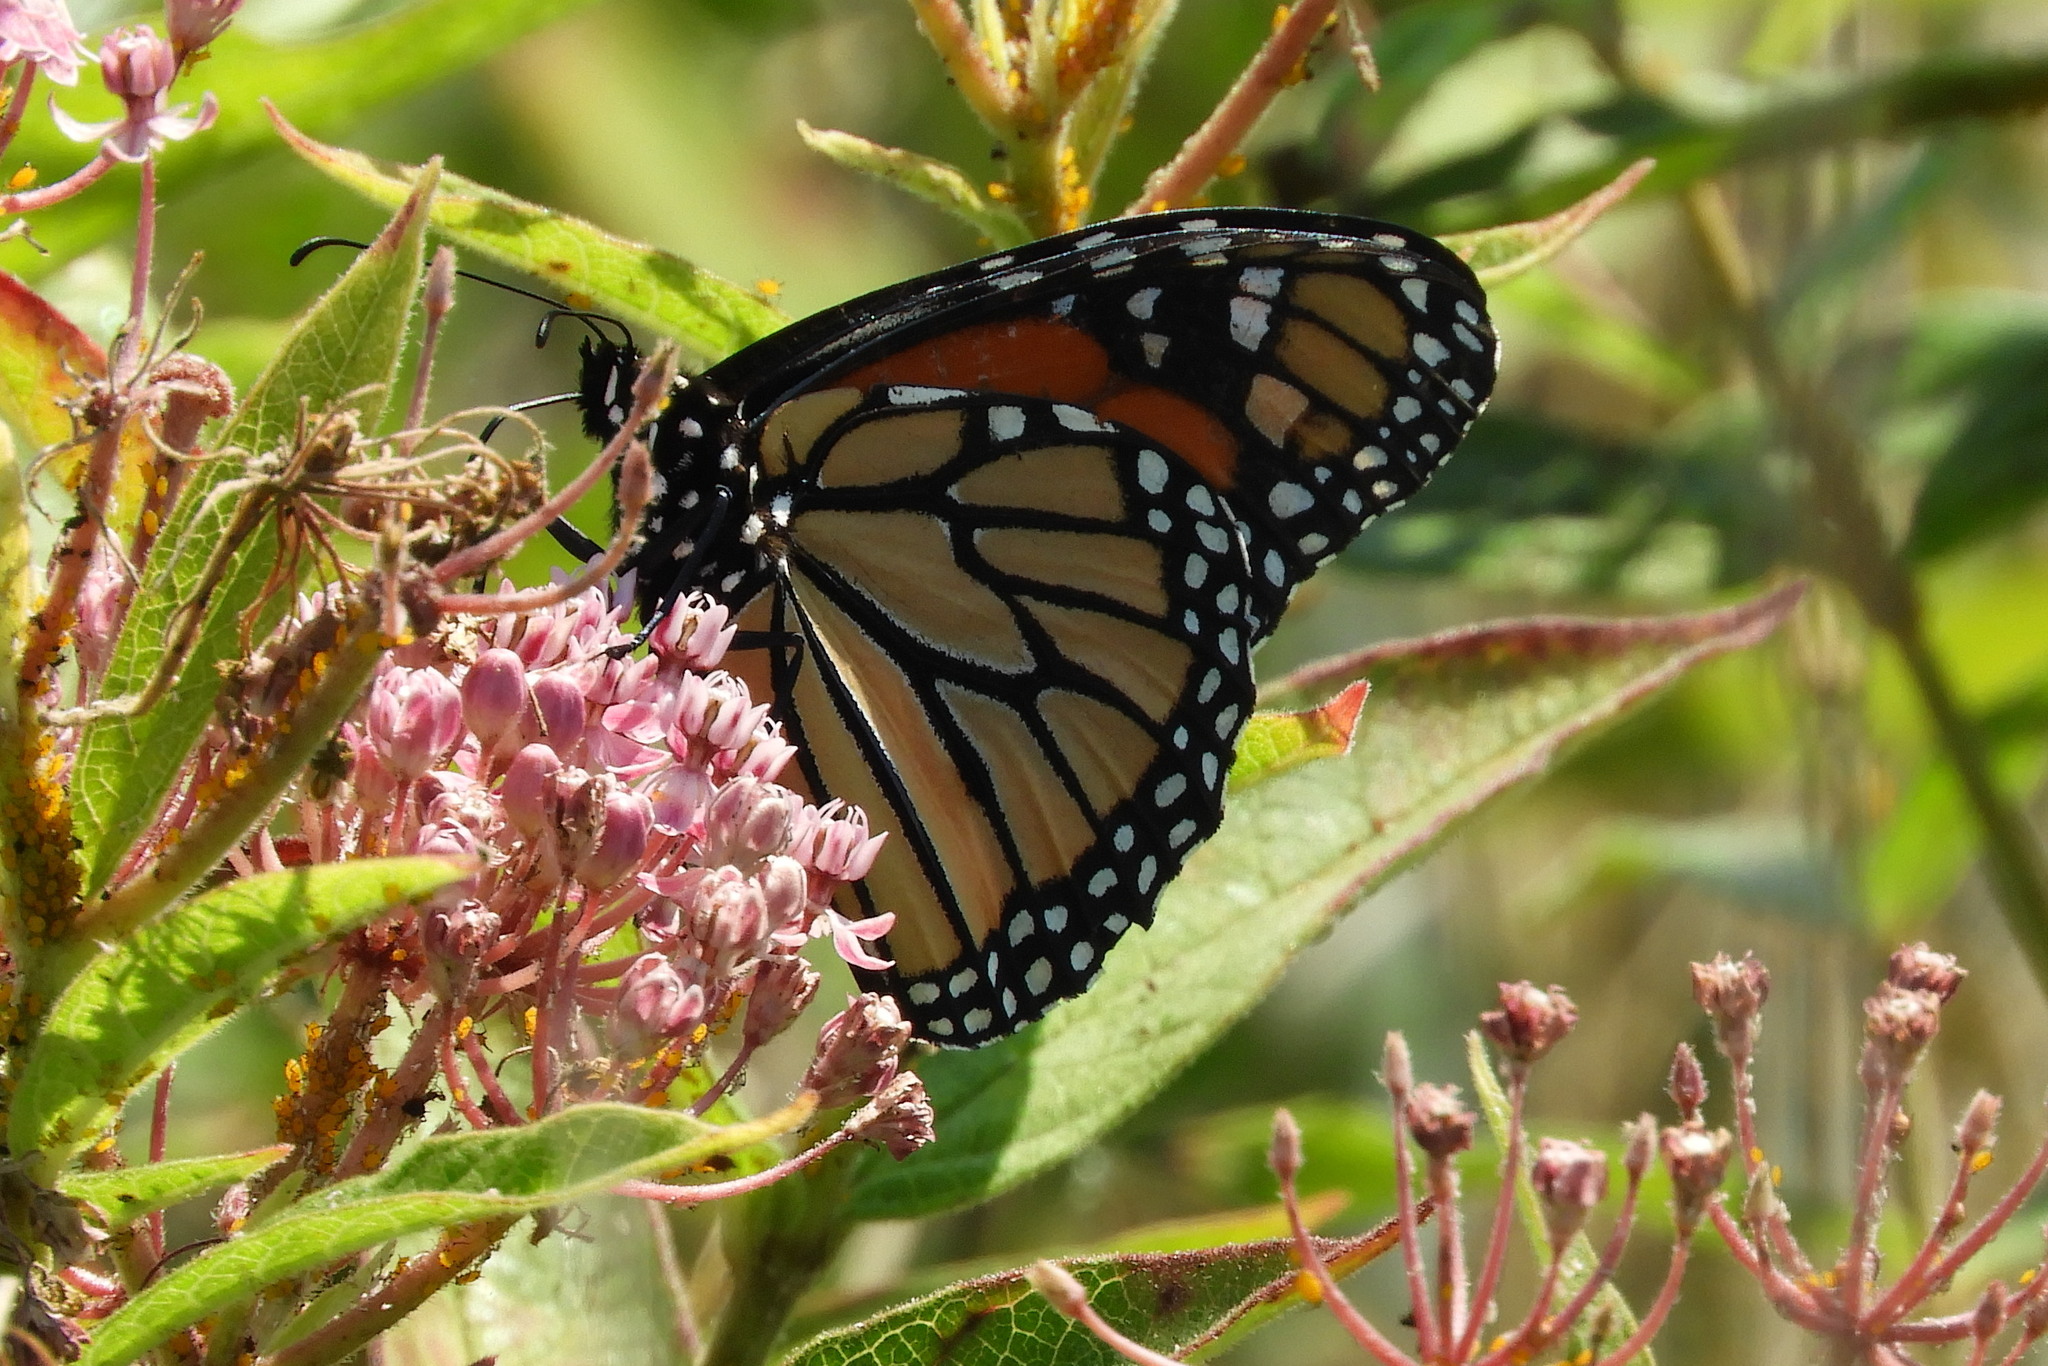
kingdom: Animalia
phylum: Arthropoda
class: Insecta
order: Lepidoptera
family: Nymphalidae
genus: Danaus
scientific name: Danaus plexippus
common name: Monarch
